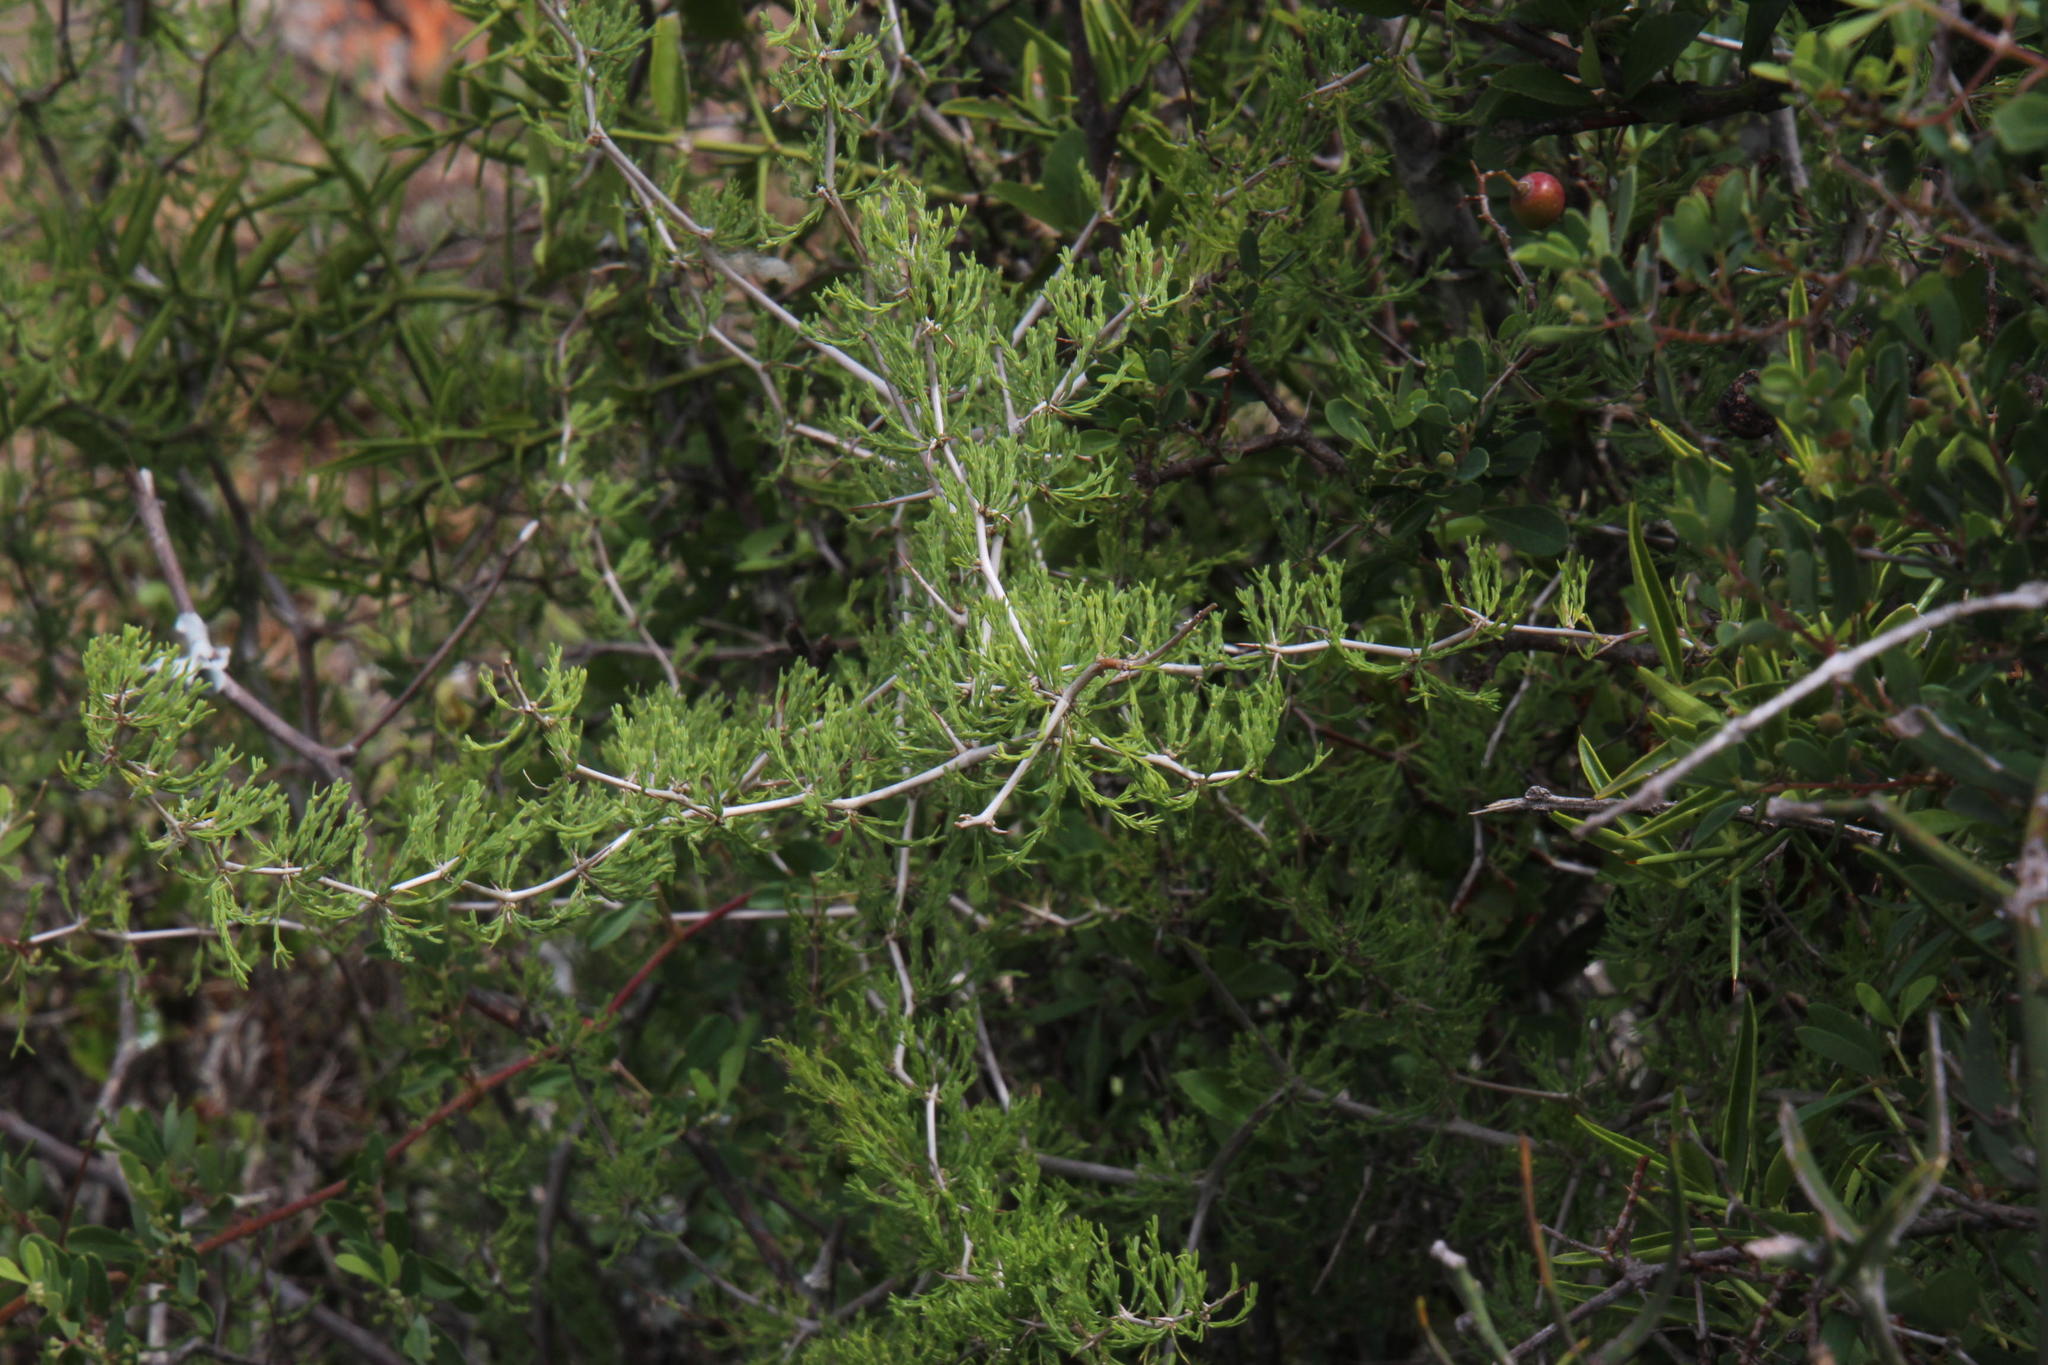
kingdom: Plantae
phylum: Tracheophyta
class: Liliopsida
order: Asparagales
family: Asparagaceae
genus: Asparagus
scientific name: Asparagus burchellii
